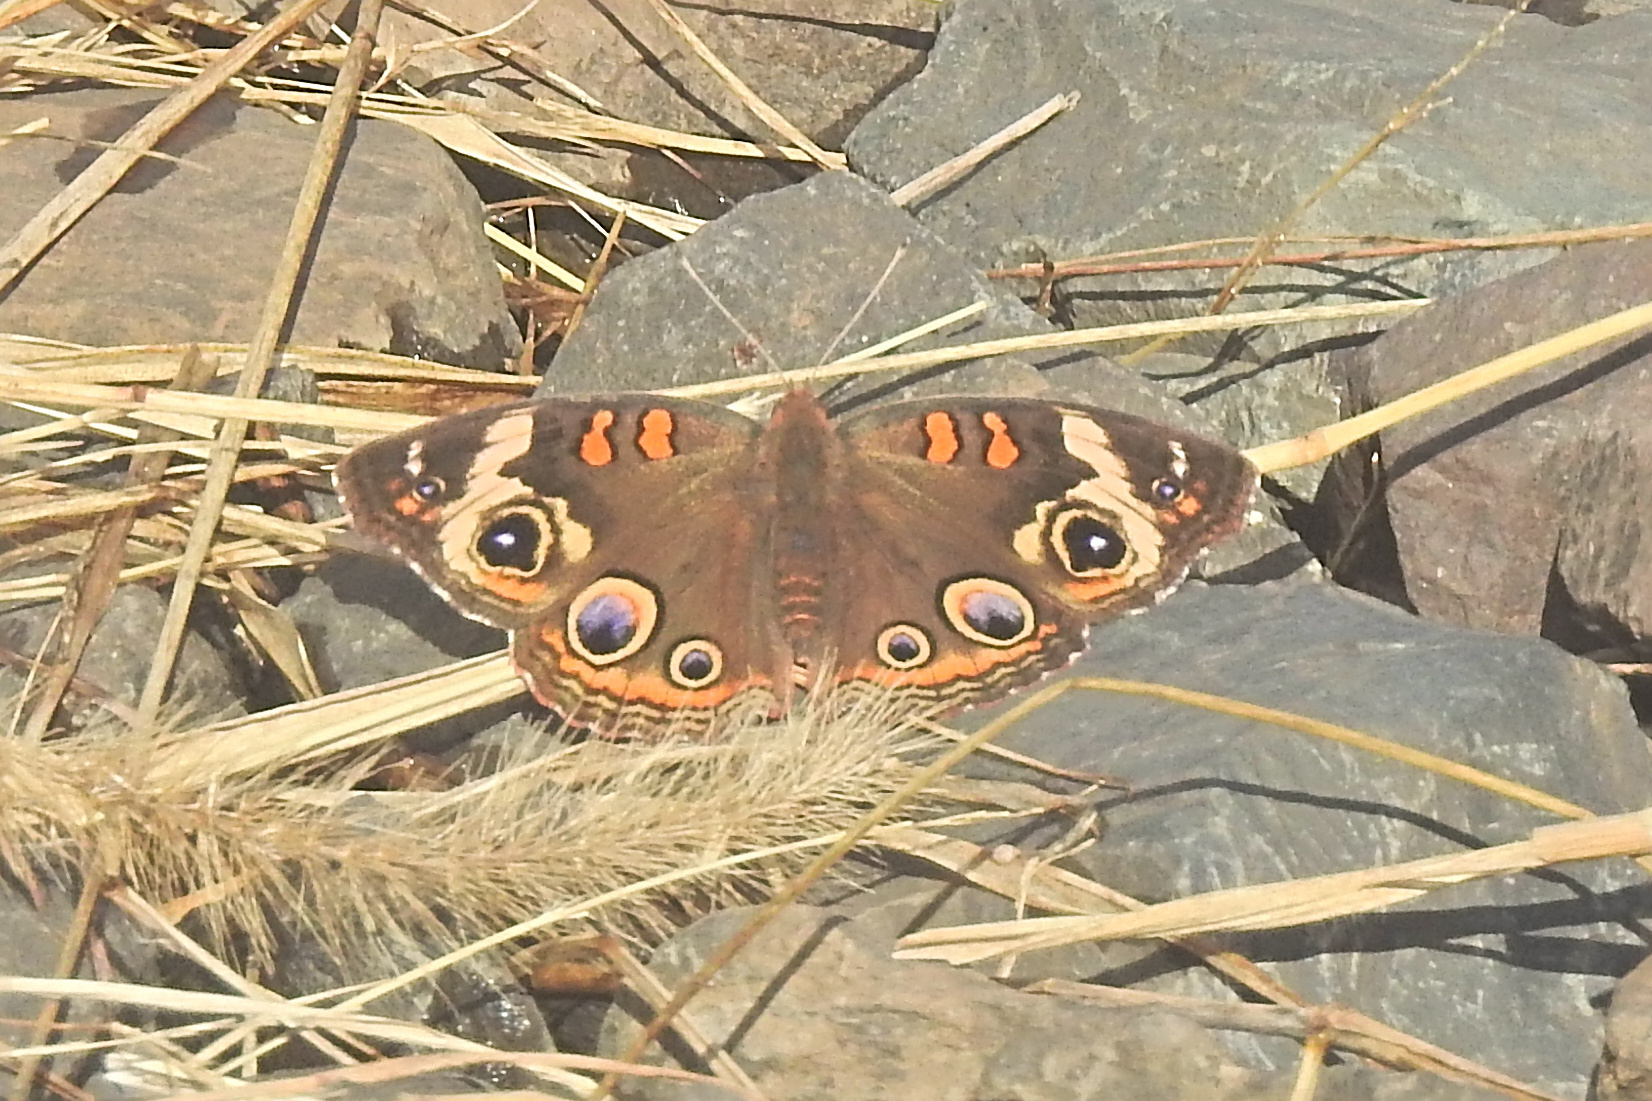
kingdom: Animalia
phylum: Arthropoda
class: Insecta
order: Lepidoptera
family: Nymphalidae
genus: Junonia
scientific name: Junonia coenia
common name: Common buckeye
